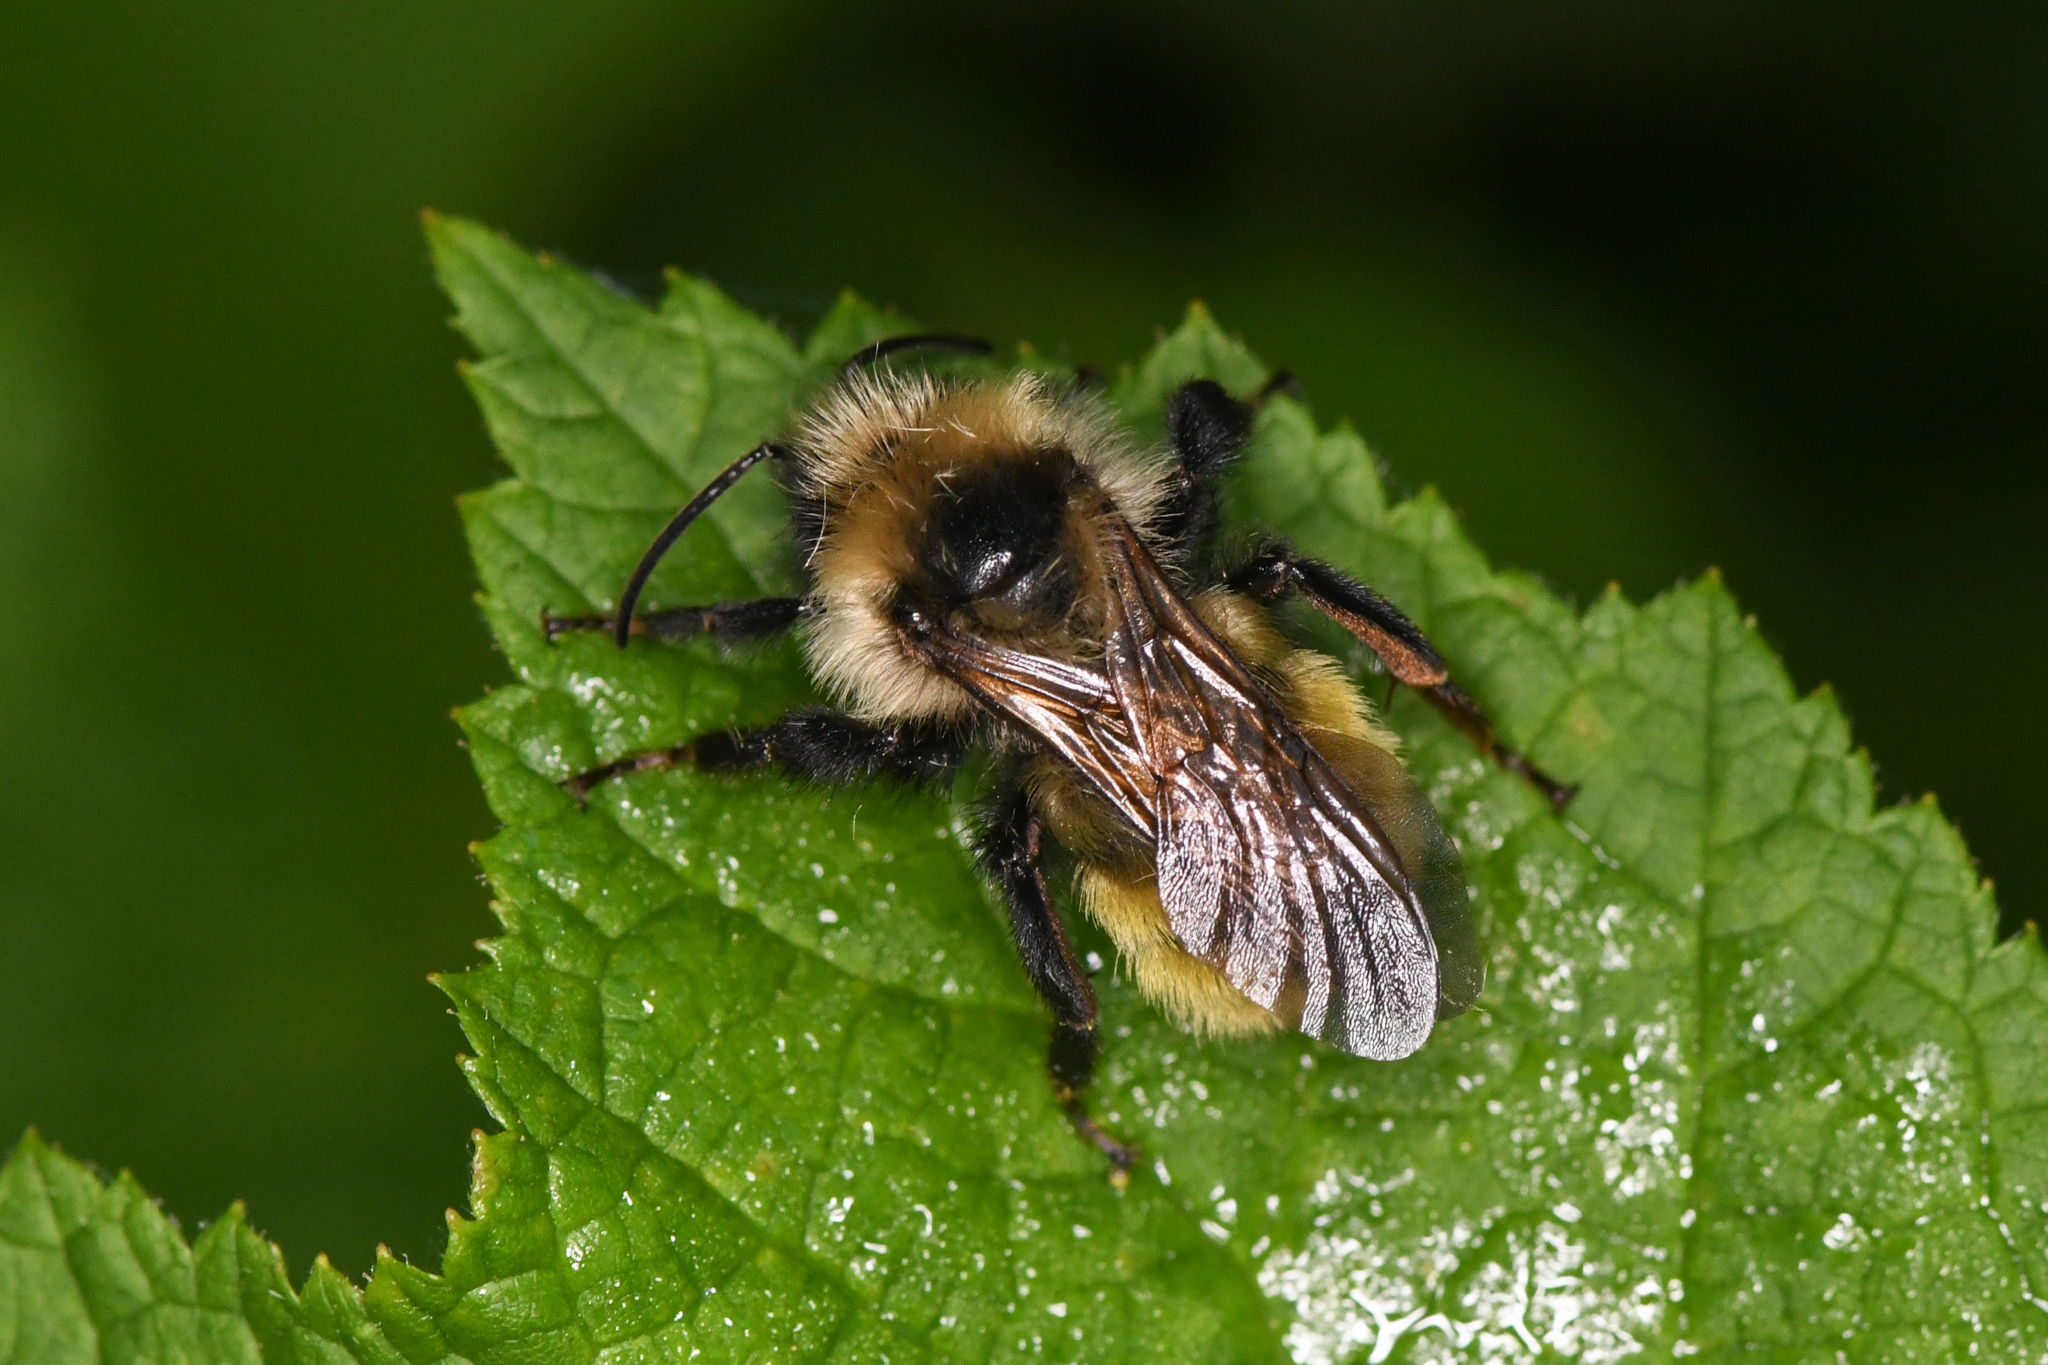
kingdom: Animalia
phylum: Arthropoda
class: Insecta
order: Hymenoptera
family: Apidae
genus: Bombus
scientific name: Bombus insularis
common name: Indiscriminate cuckoo bumble bee
